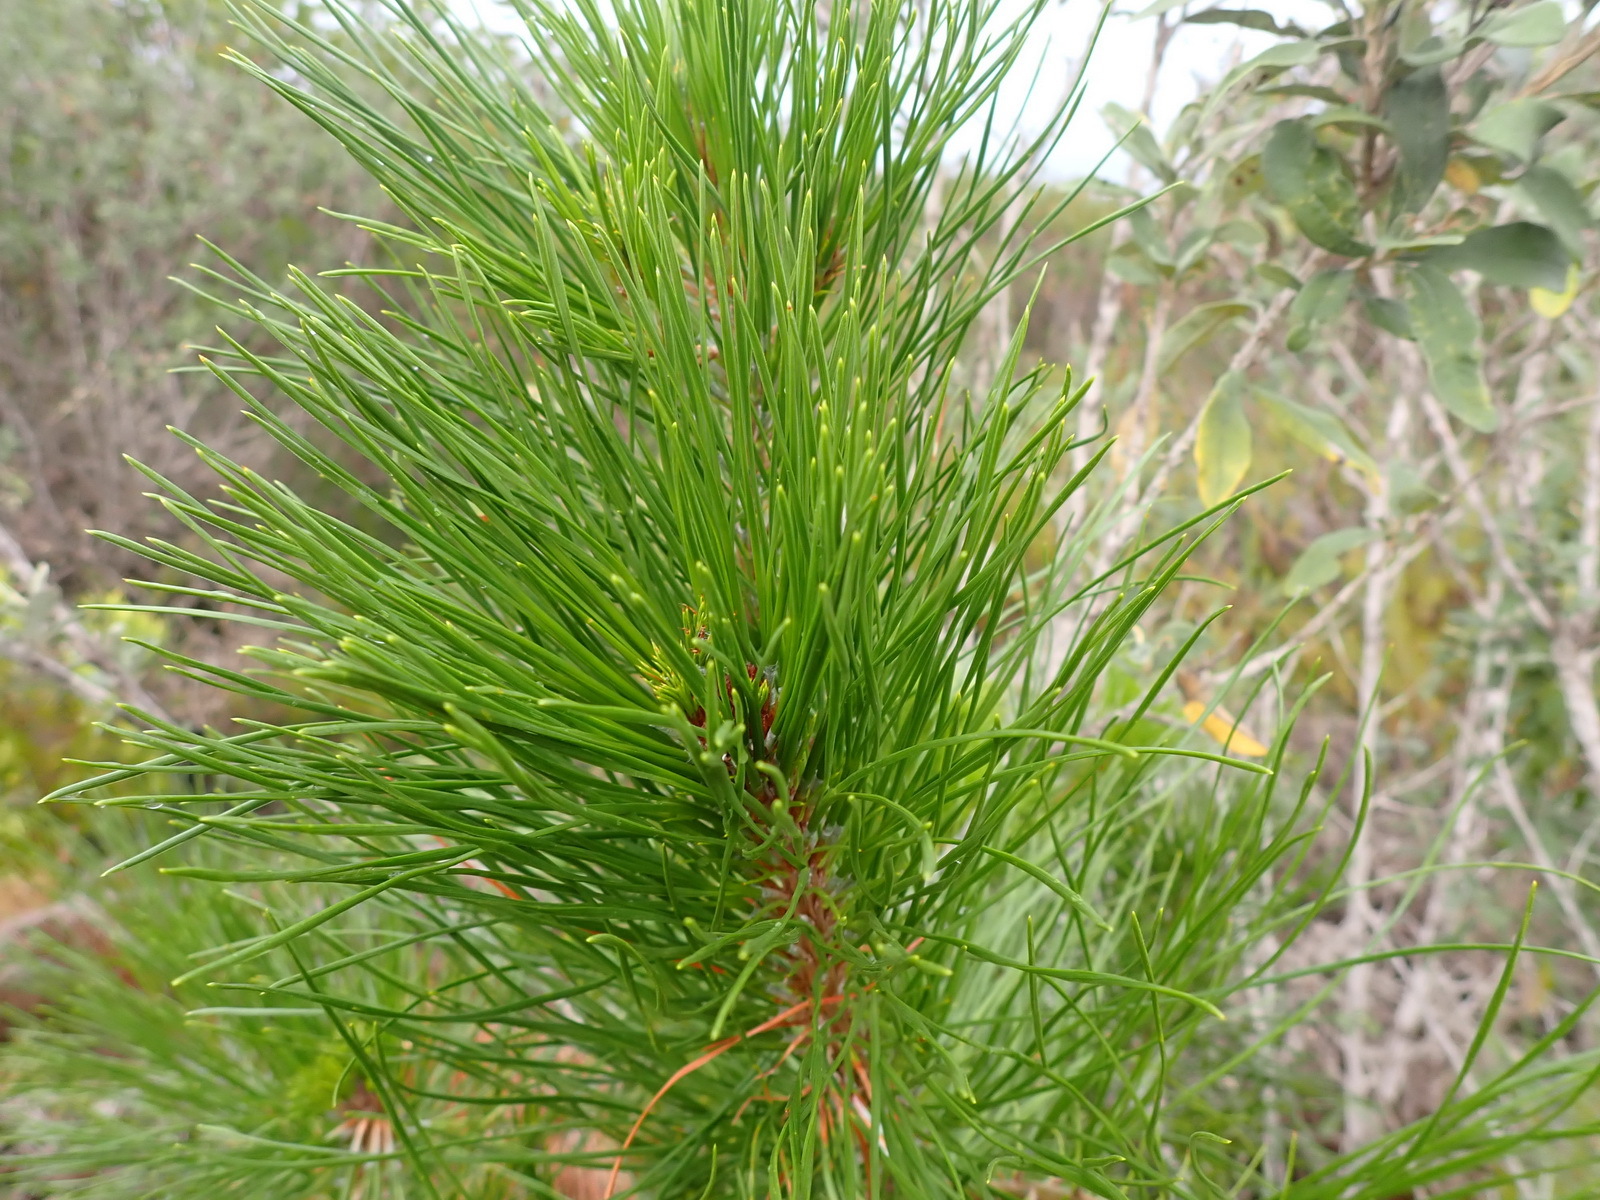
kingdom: Plantae
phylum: Tracheophyta
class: Pinopsida
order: Pinales
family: Pinaceae
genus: Pinus
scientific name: Pinus radiata
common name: Monterey pine
